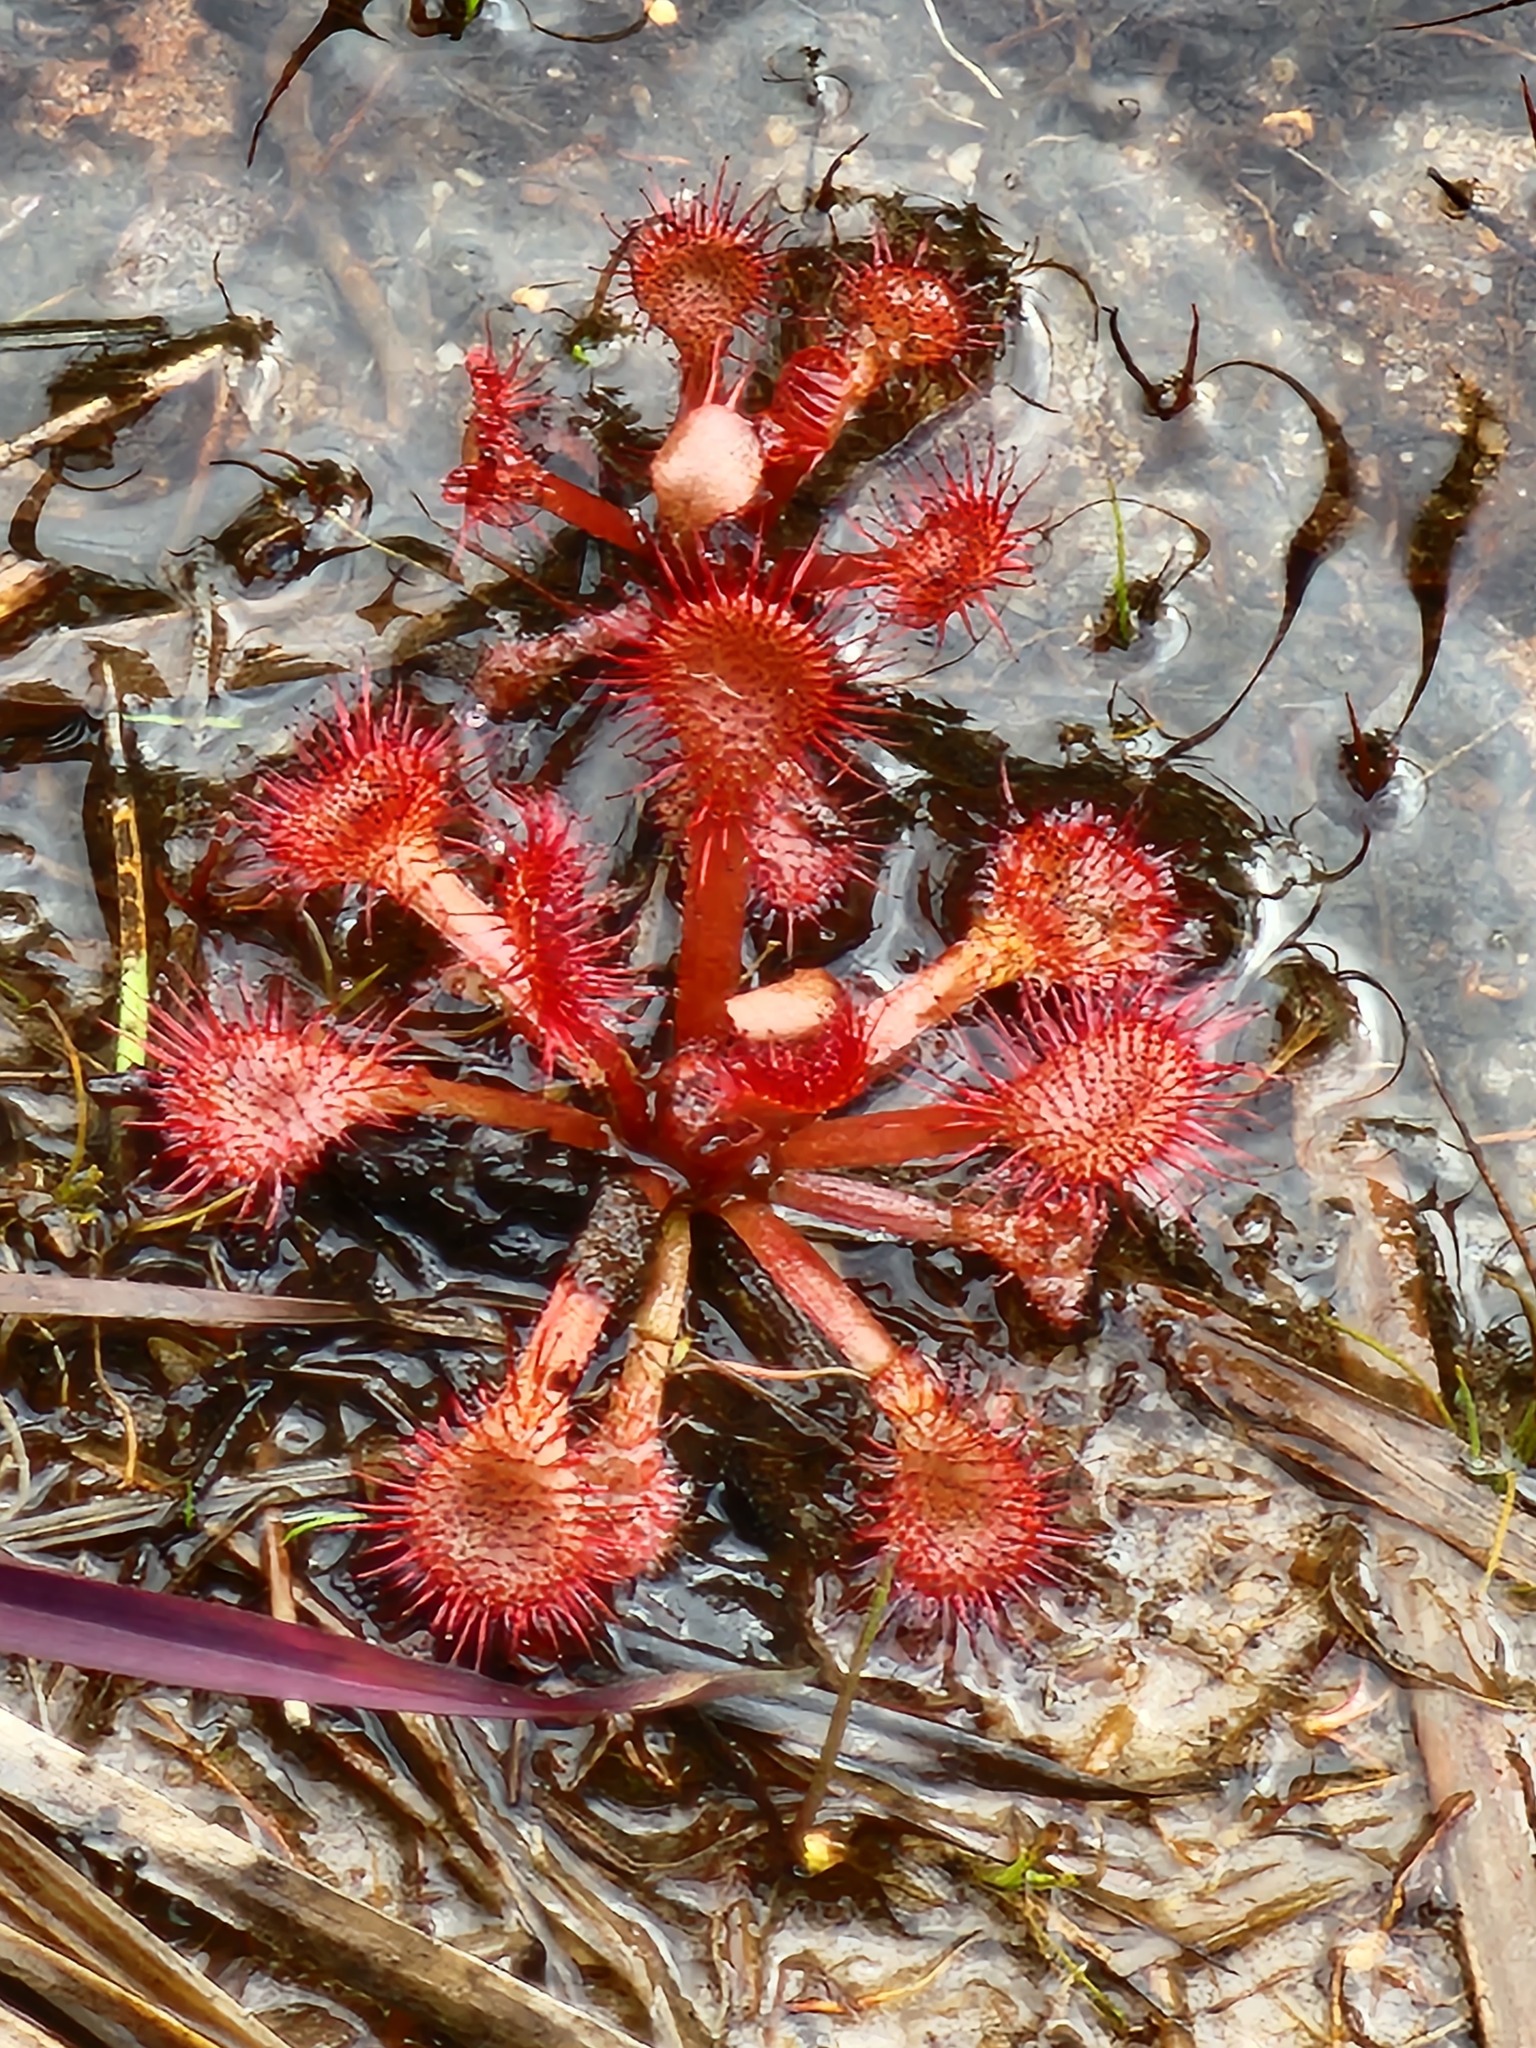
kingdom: Plantae
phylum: Tracheophyta
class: Magnoliopsida
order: Caryophyllales
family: Droseraceae
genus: Drosera
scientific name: Drosera capillaris
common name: Pink sundew
